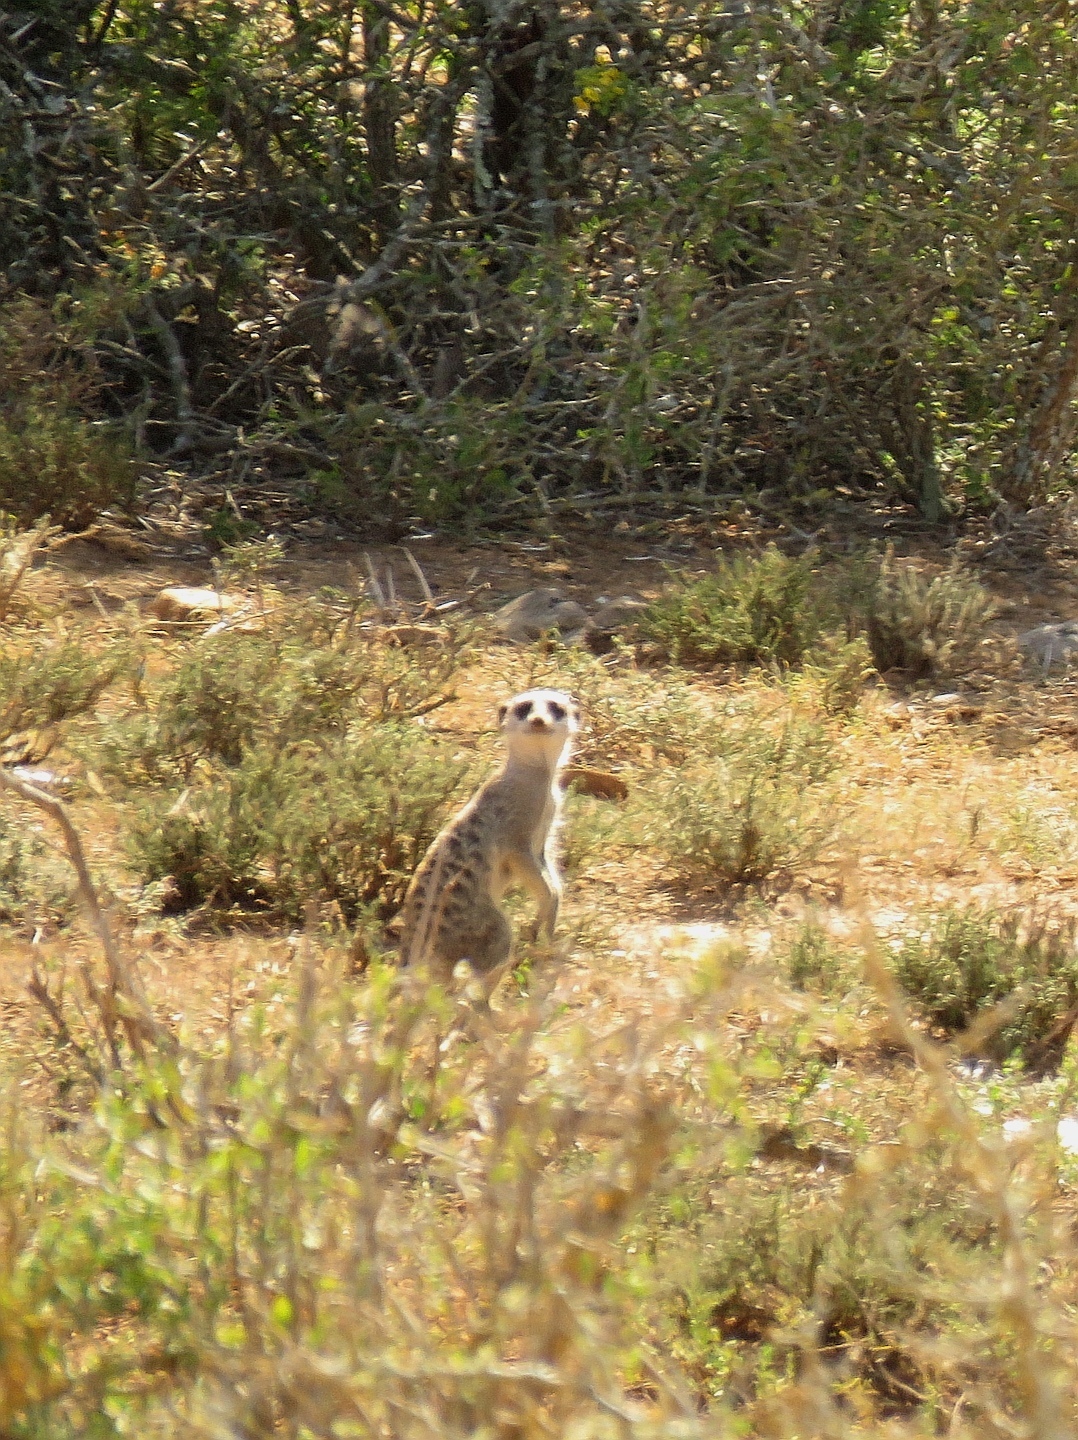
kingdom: Animalia
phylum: Chordata
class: Mammalia
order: Carnivora
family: Herpestidae
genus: Suricata
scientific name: Suricata suricatta
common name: Meerkat
